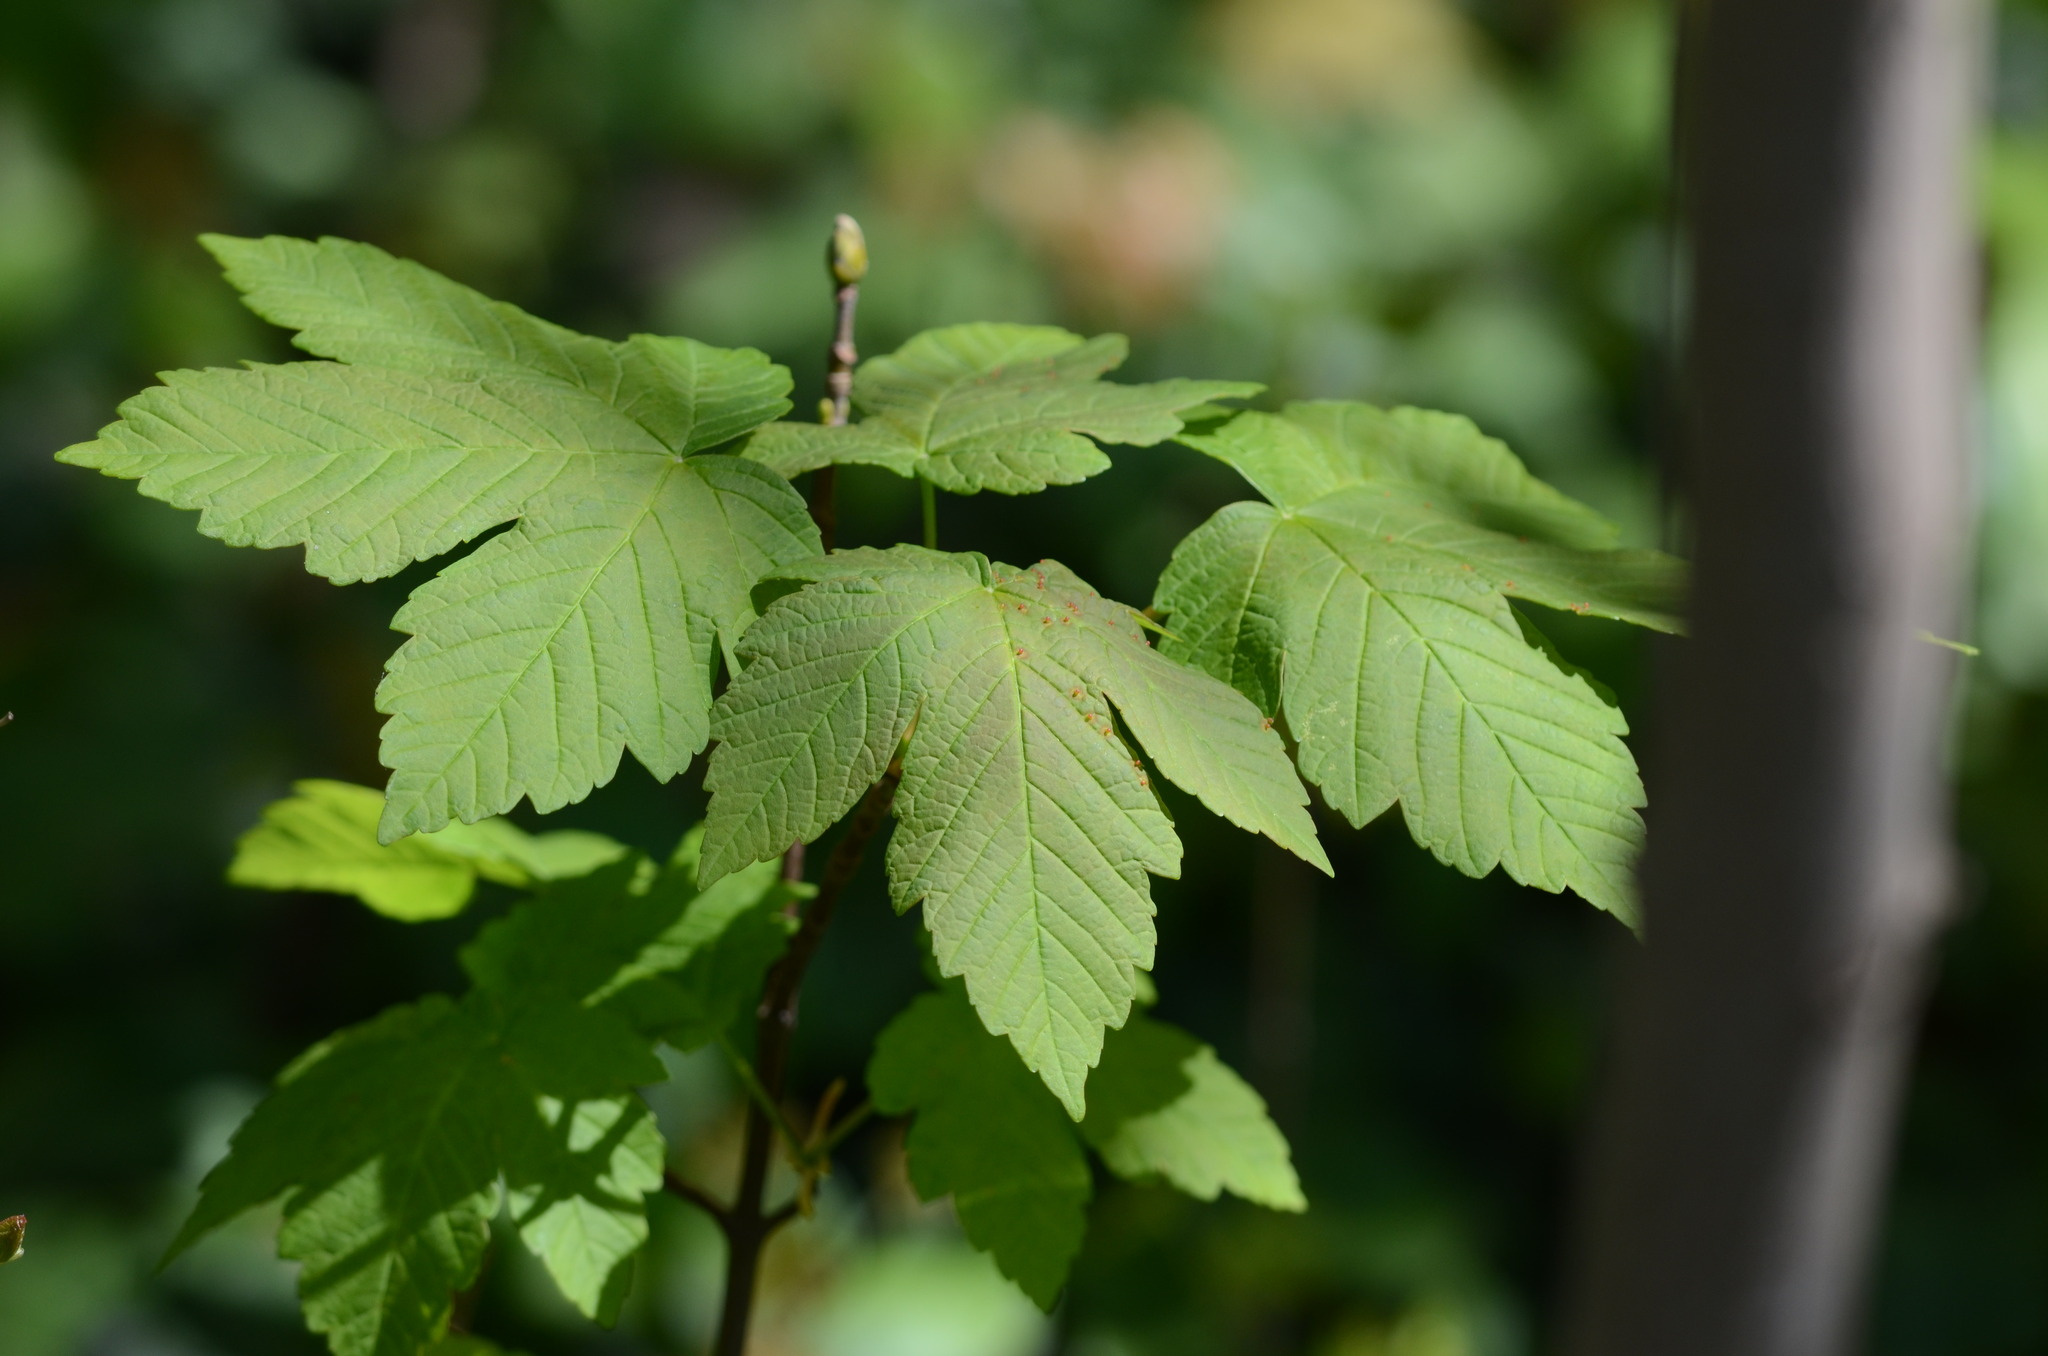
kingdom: Plantae
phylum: Tracheophyta
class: Magnoliopsida
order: Sapindales
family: Sapindaceae
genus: Acer
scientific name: Acer pseudoplatanus
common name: Sycamore
